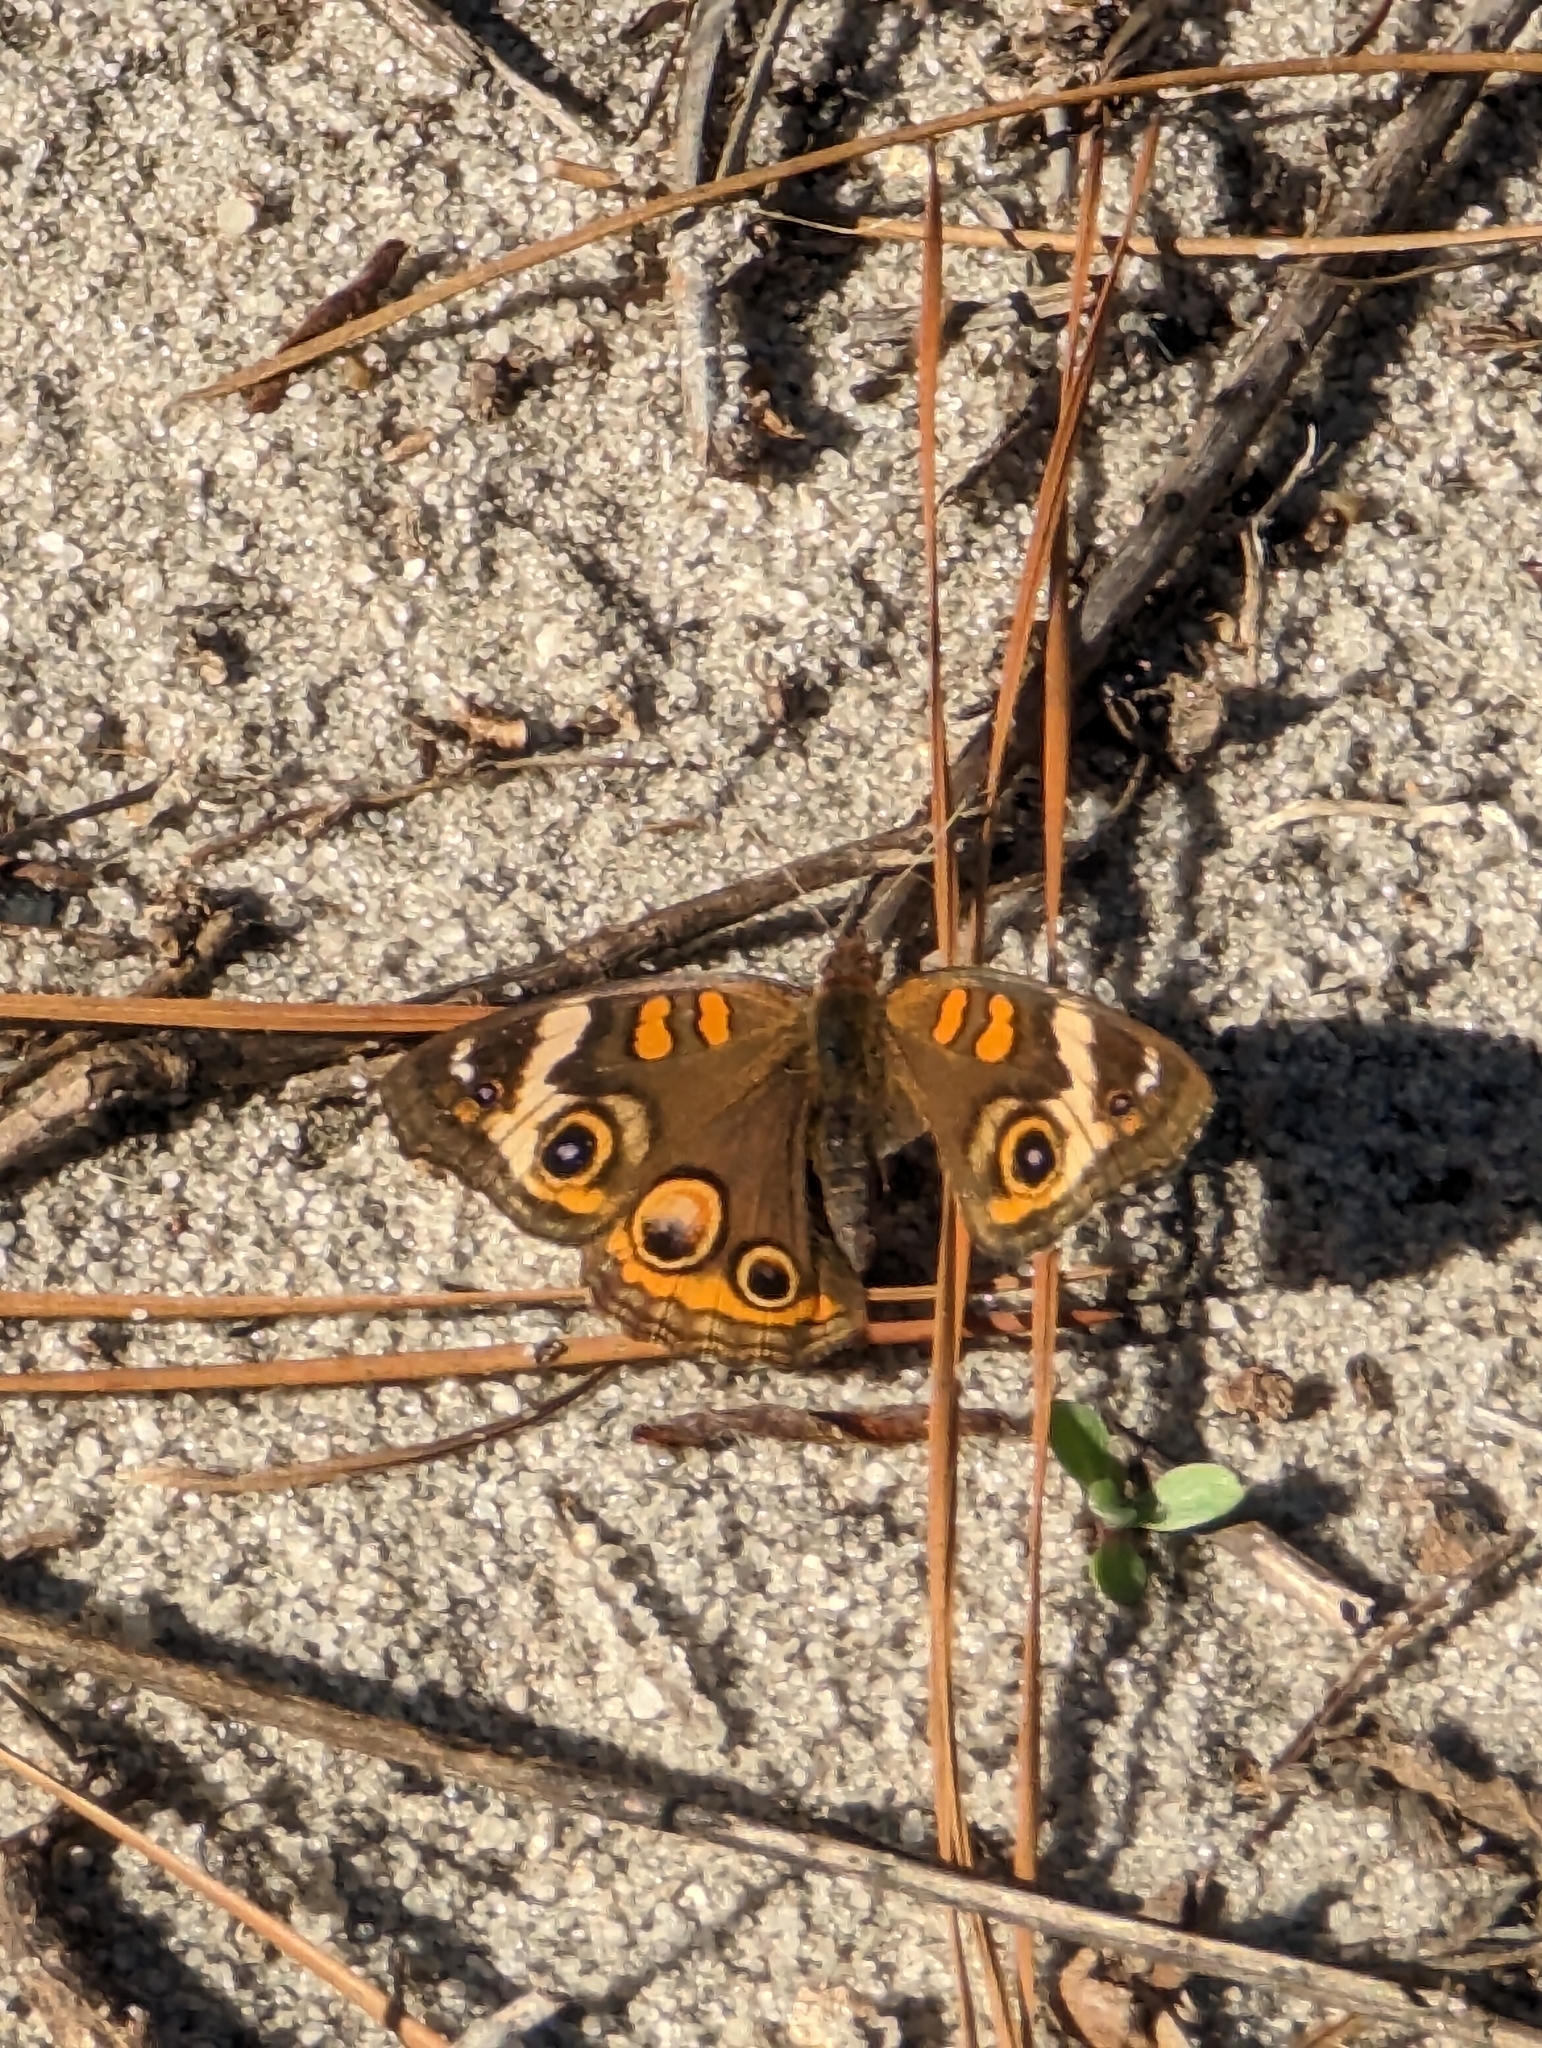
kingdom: Animalia
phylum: Arthropoda
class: Insecta
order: Lepidoptera
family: Nymphalidae
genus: Junonia
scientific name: Junonia coenia
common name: Common buckeye
